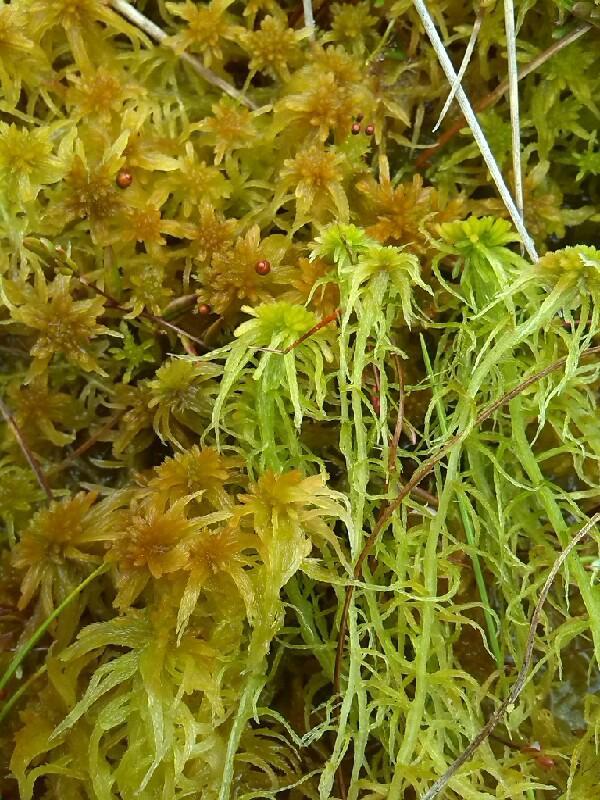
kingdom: Plantae
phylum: Bryophyta
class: Sphagnopsida
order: Sphagnales
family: Sphagnaceae
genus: Sphagnum
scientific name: Sphagnum fallax
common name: Flat-top peat moss
